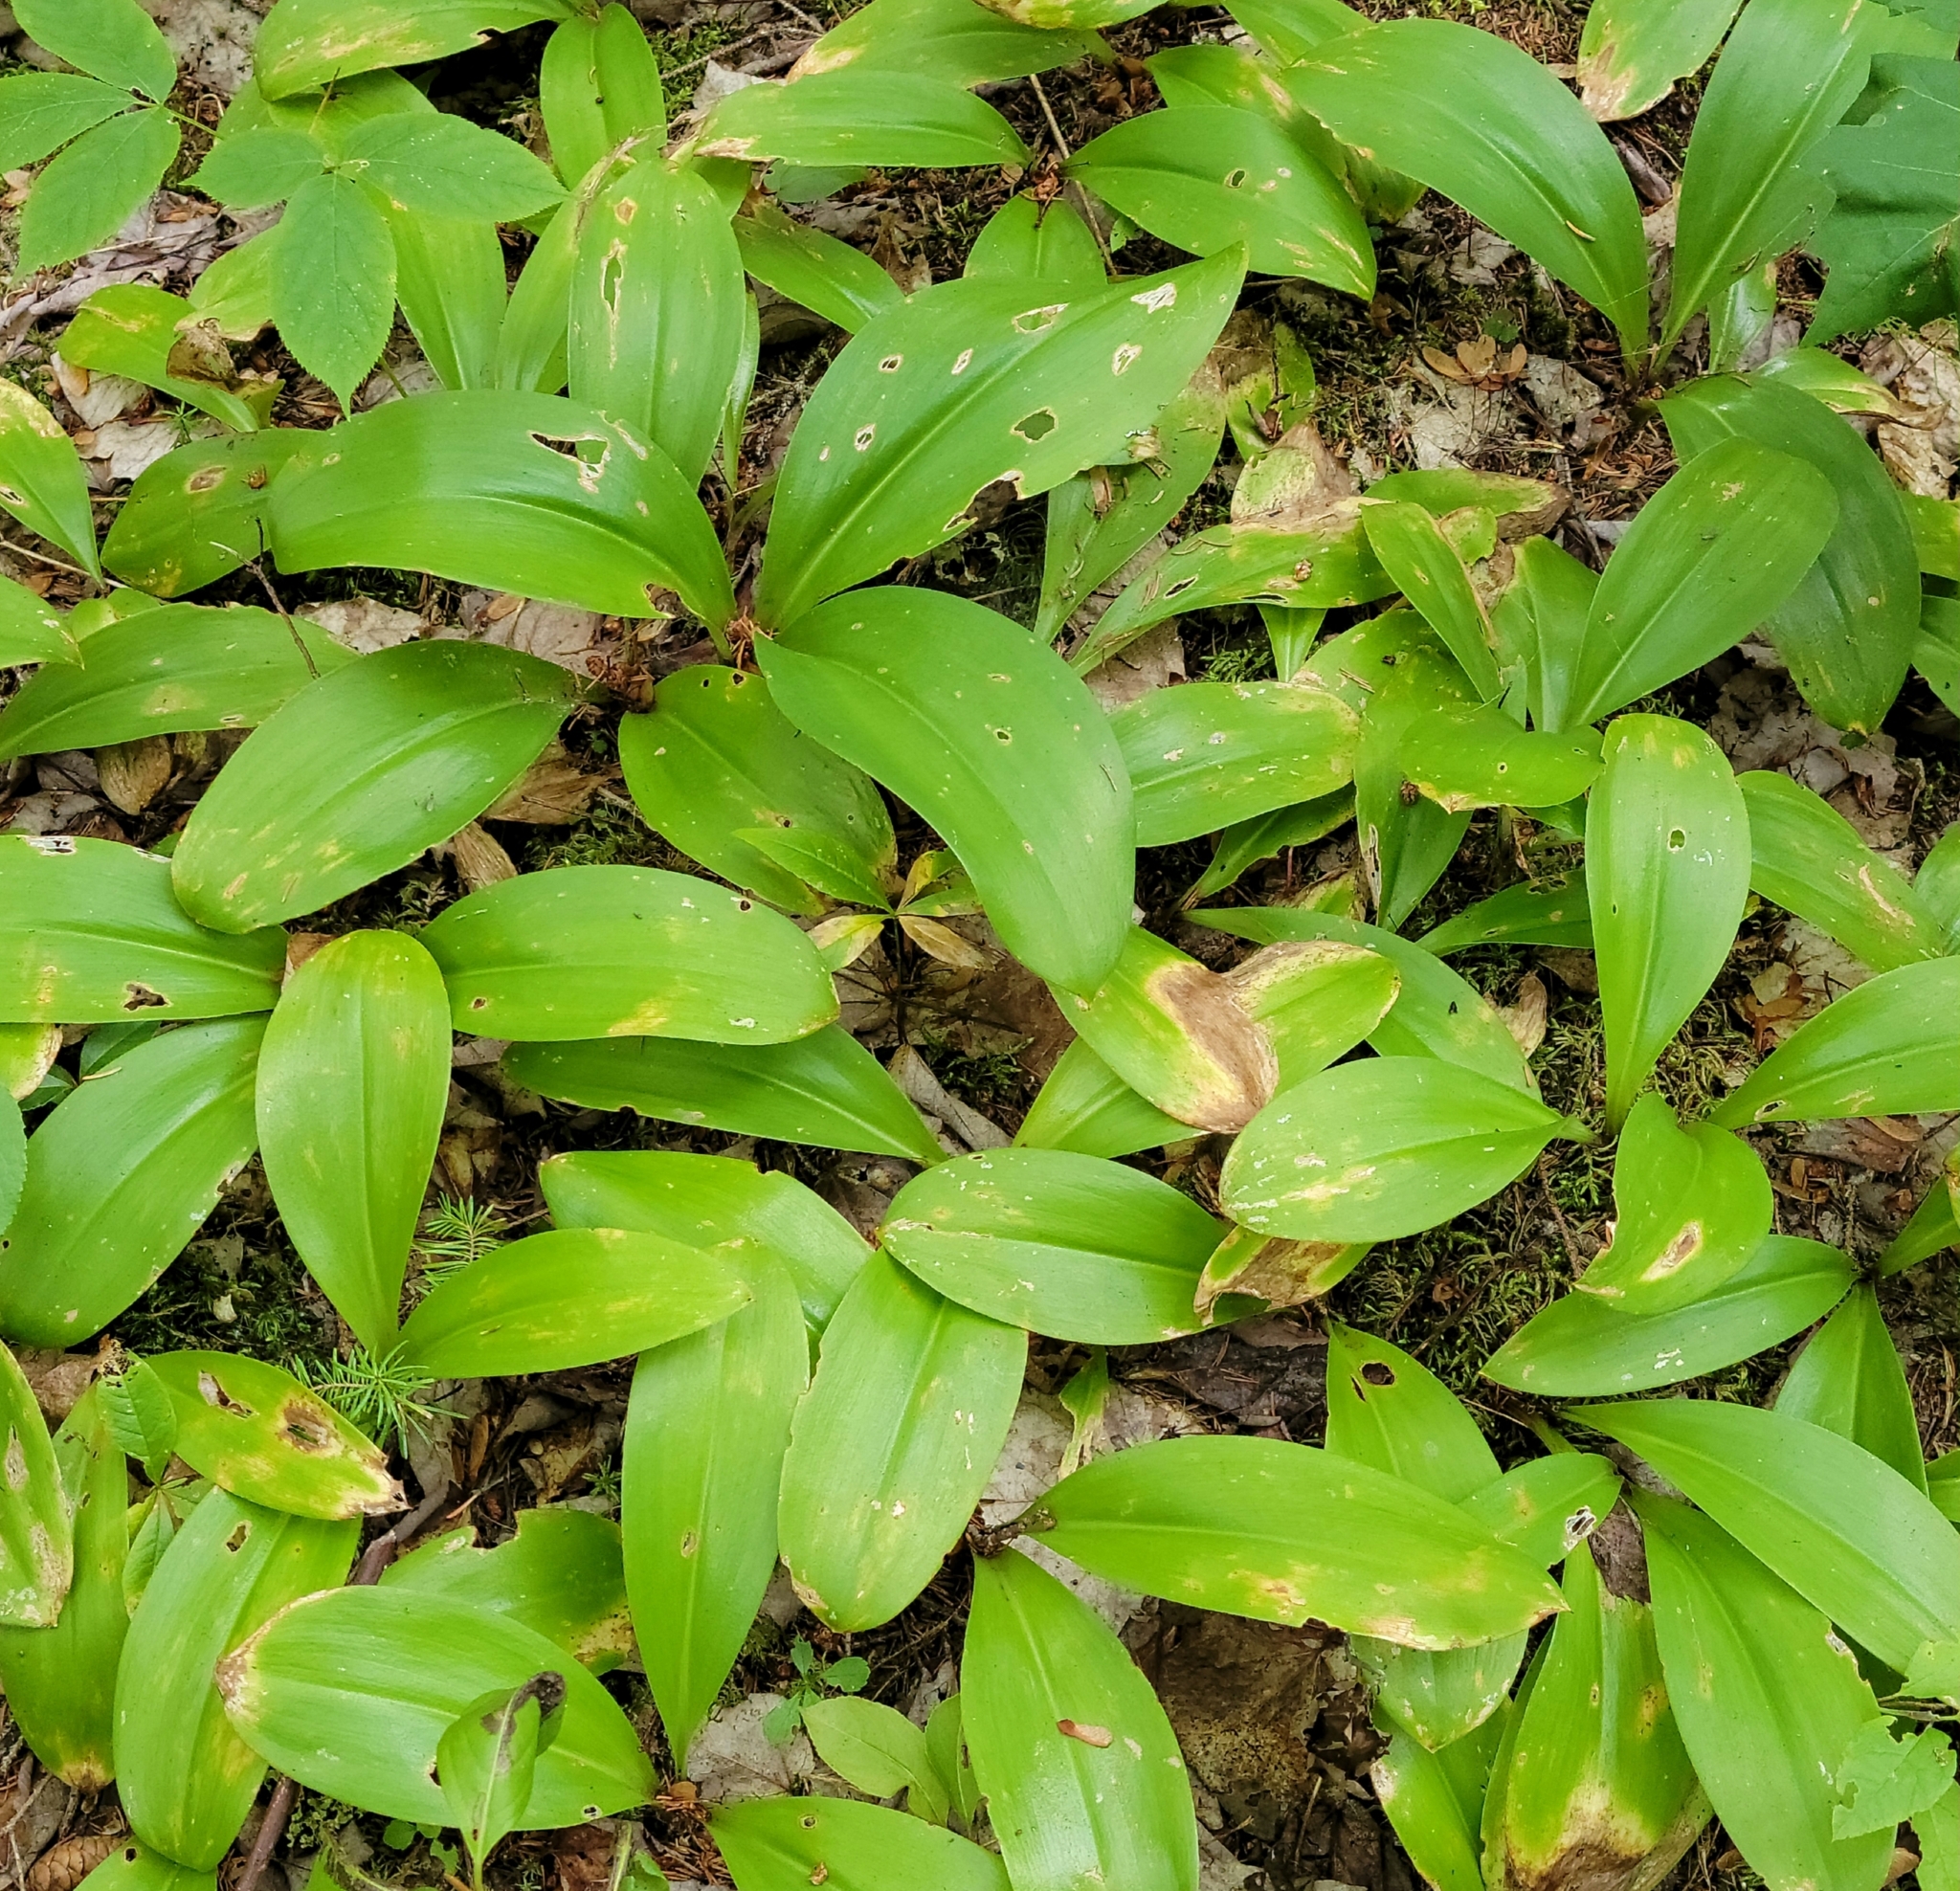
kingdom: Plantae
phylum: Tracheophyta
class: Liliopsida
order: Liliales
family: Liliaceae
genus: Clintonia
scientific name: Clintonia borealis
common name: Yellow clintonia
